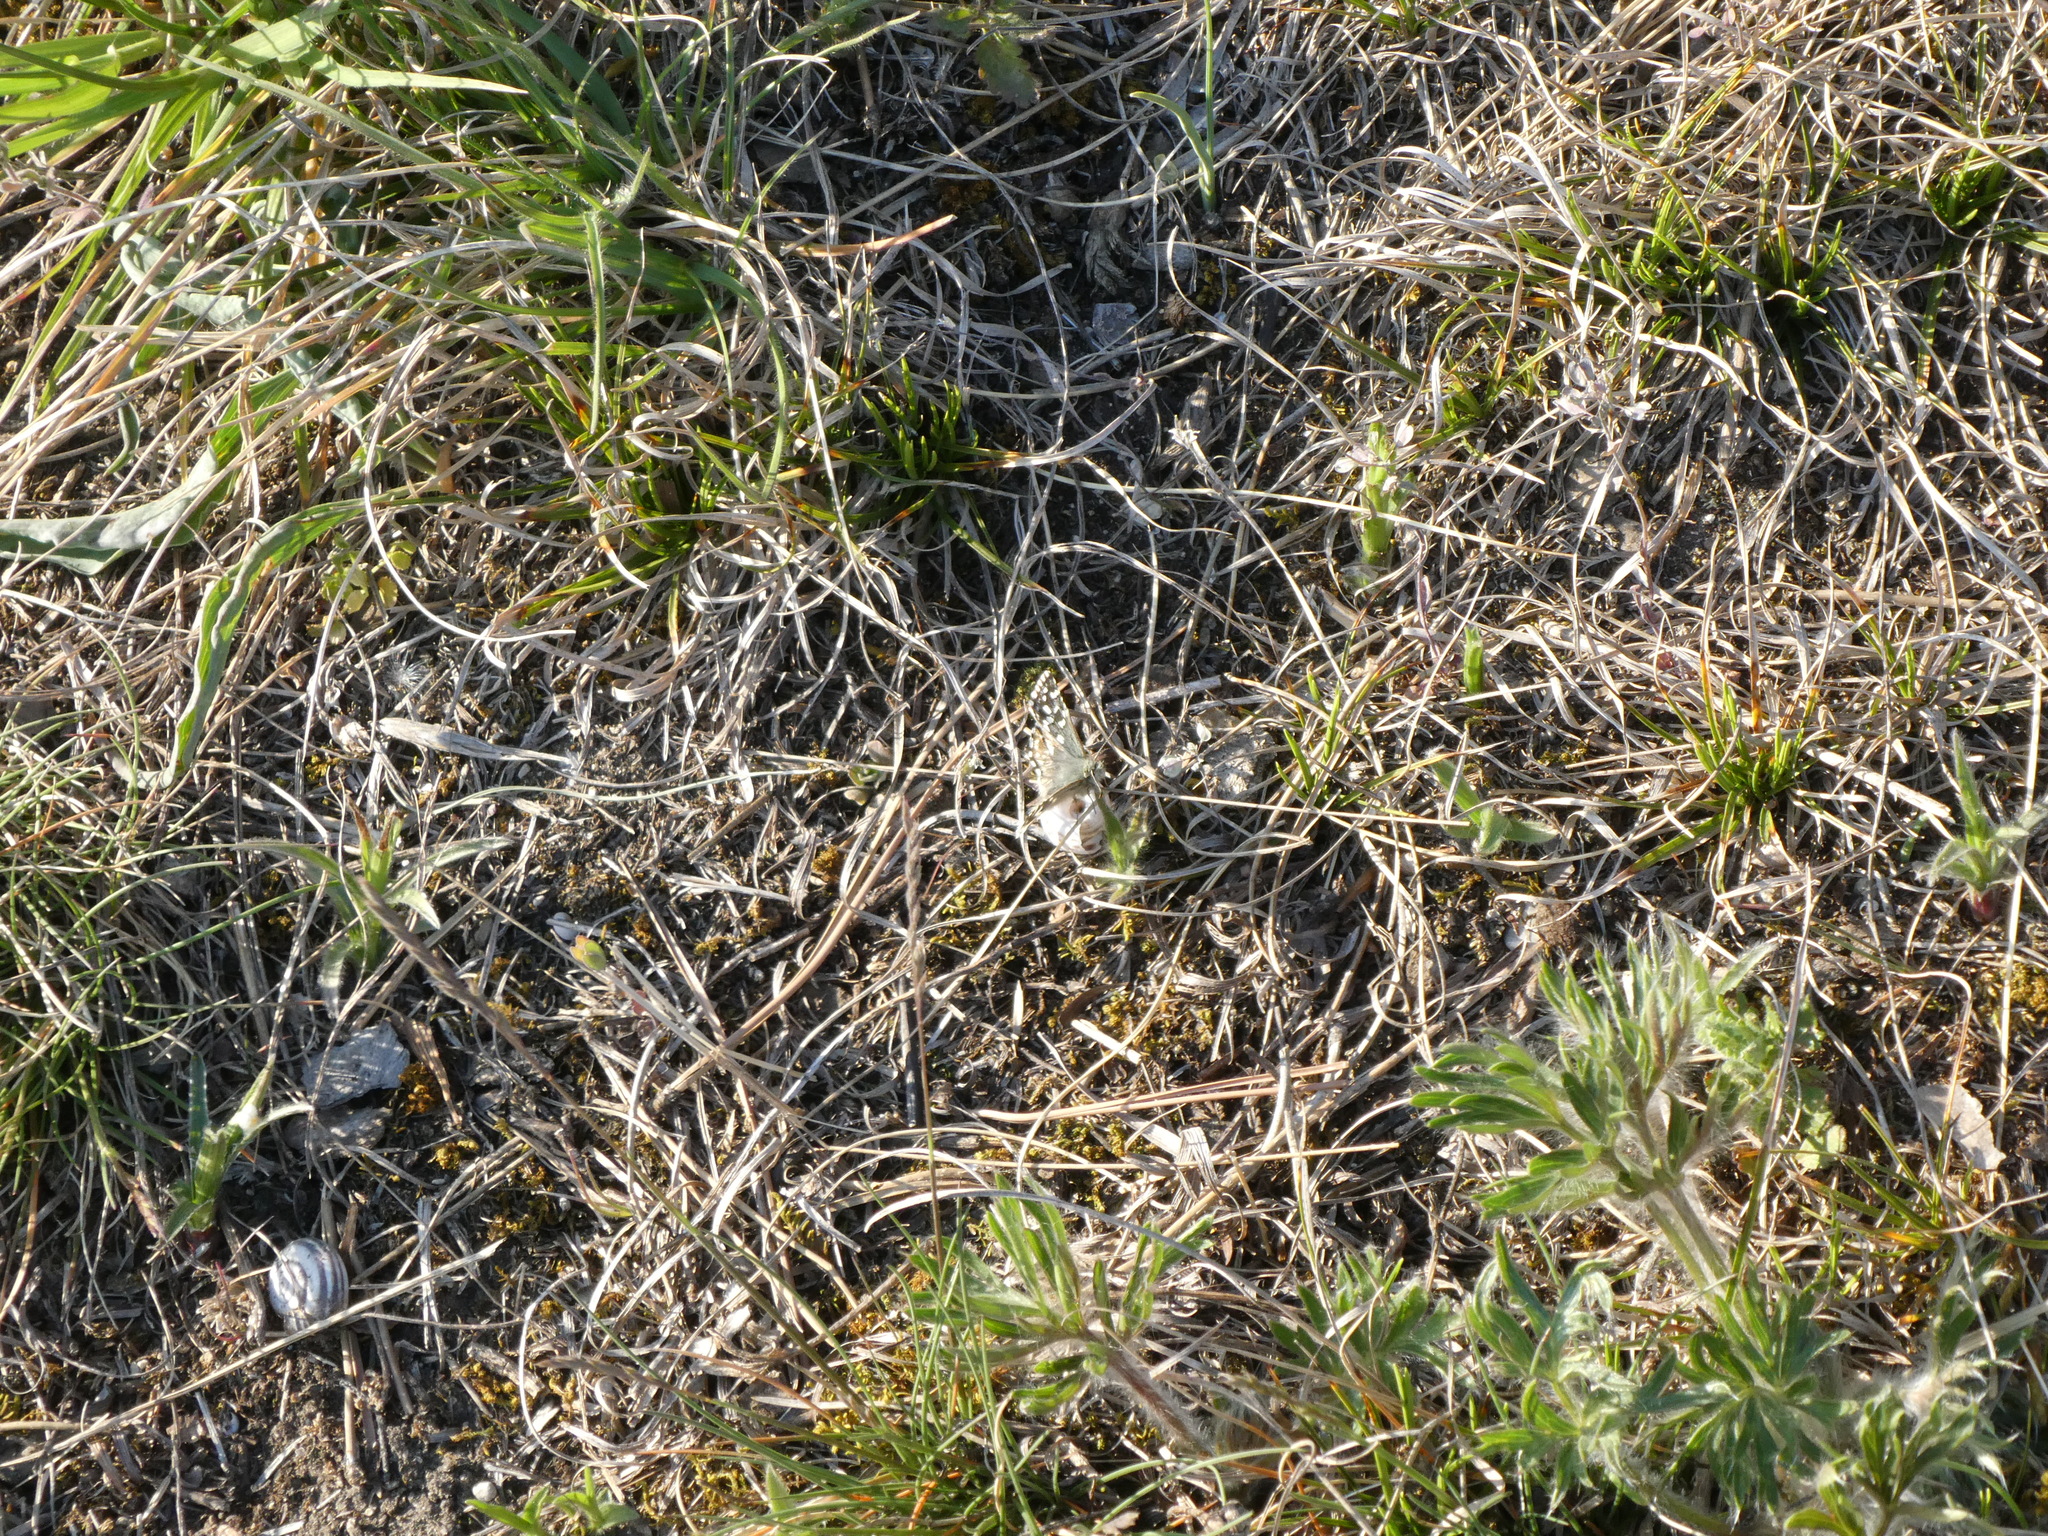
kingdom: Animalia
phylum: Arthropoda
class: Insecta
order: Lepidoptera
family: Hesperiidae
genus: Pyrgus
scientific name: Pyrgus malvae
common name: Grizzled skipper
